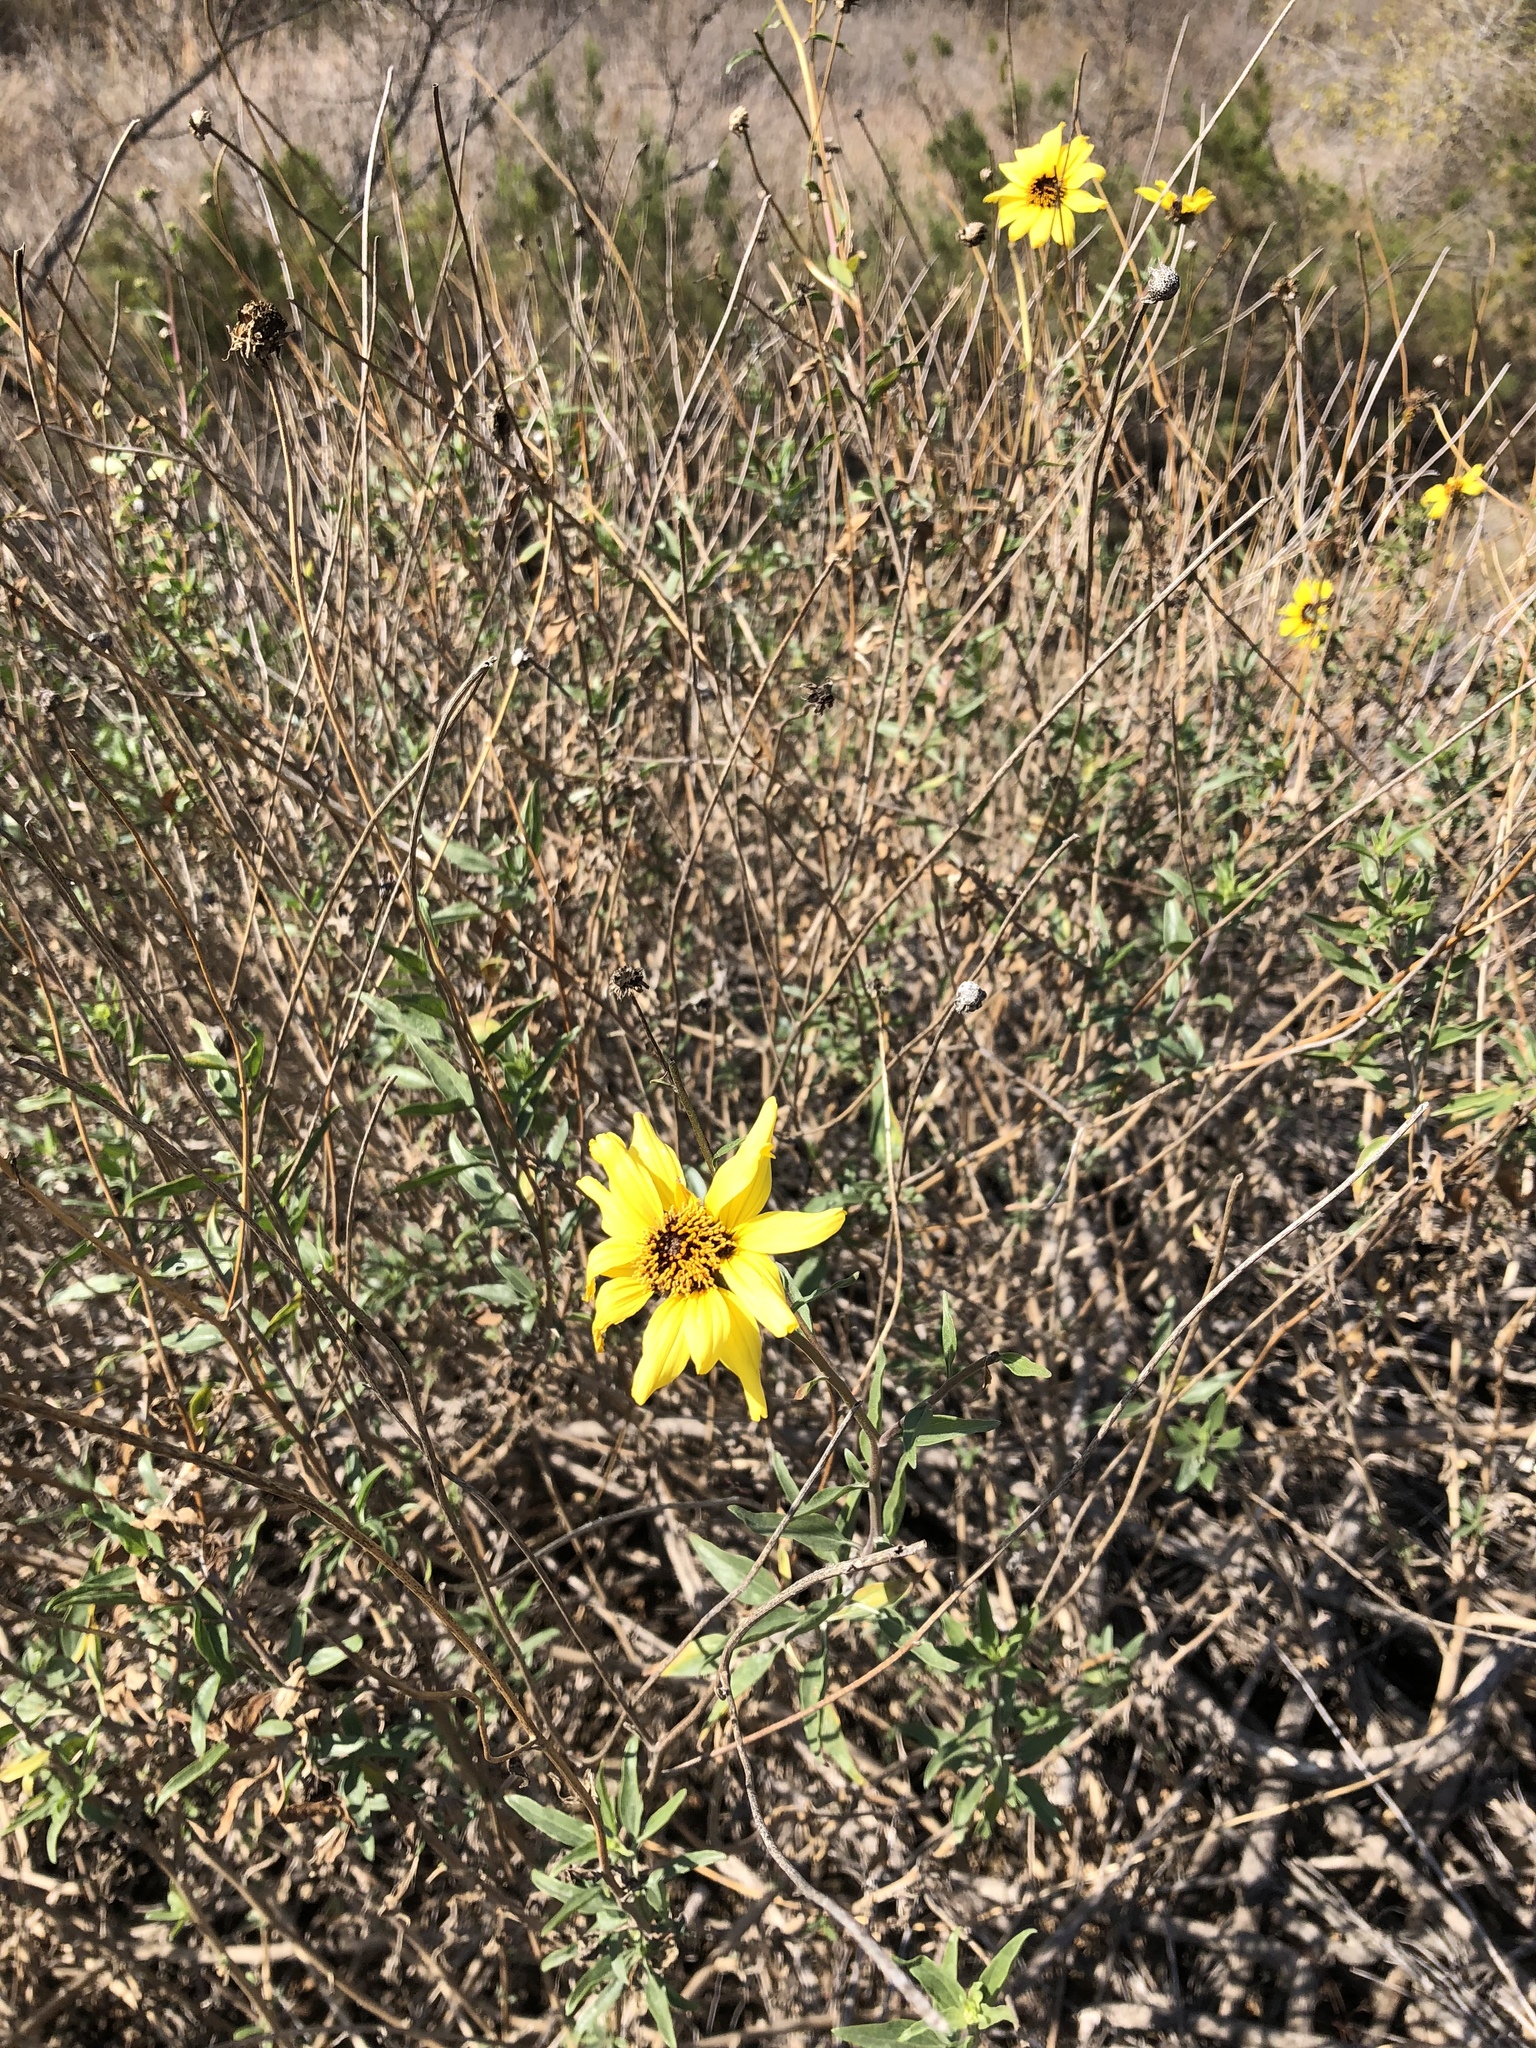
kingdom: Plantae
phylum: Tracheophyta
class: Magnoliopsida
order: Asterales
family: Asteraceae
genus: Encelia
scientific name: Encelia californica
